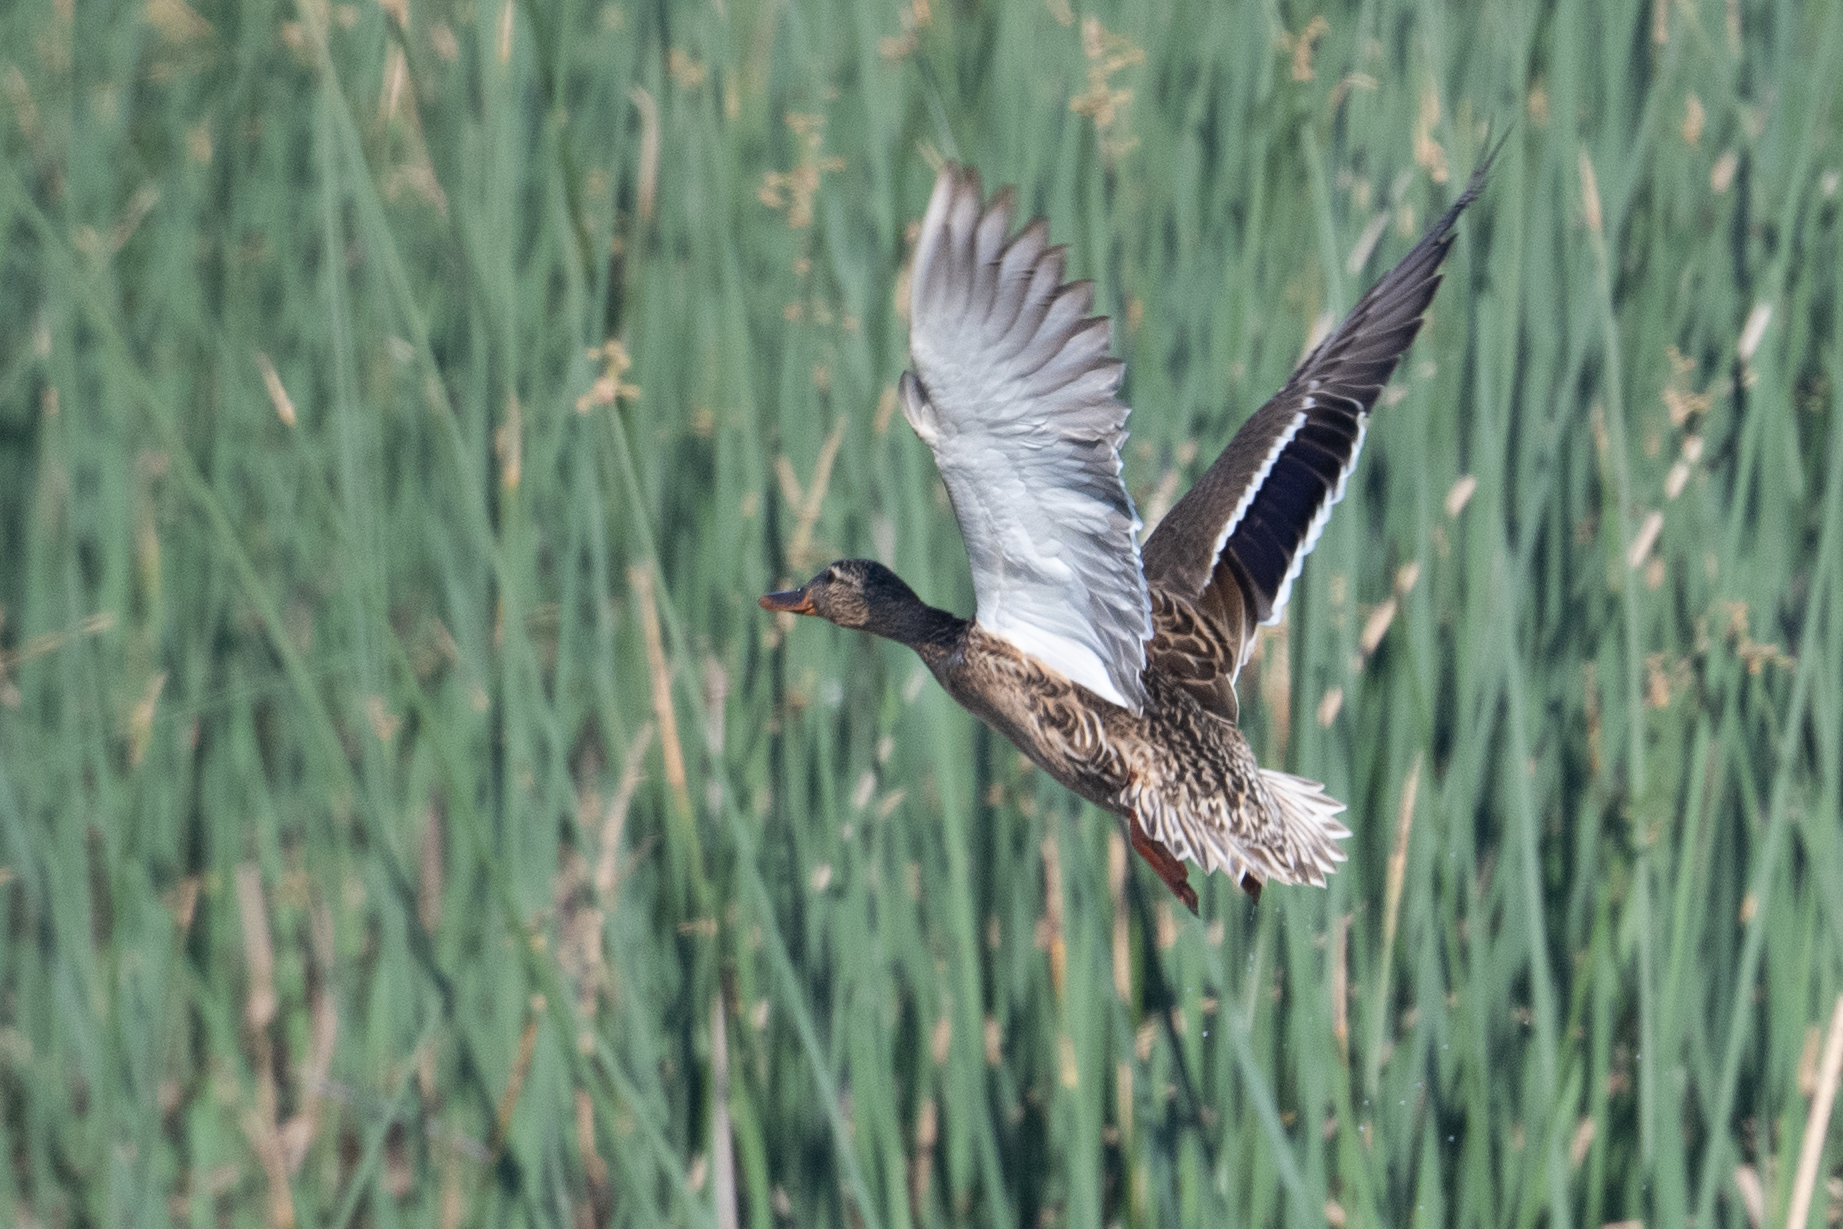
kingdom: Animalia
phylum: Chordata
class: Aves
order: Anseriformes
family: Anatidae
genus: Anas
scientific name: Anas platyrhynchos
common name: Mallard
